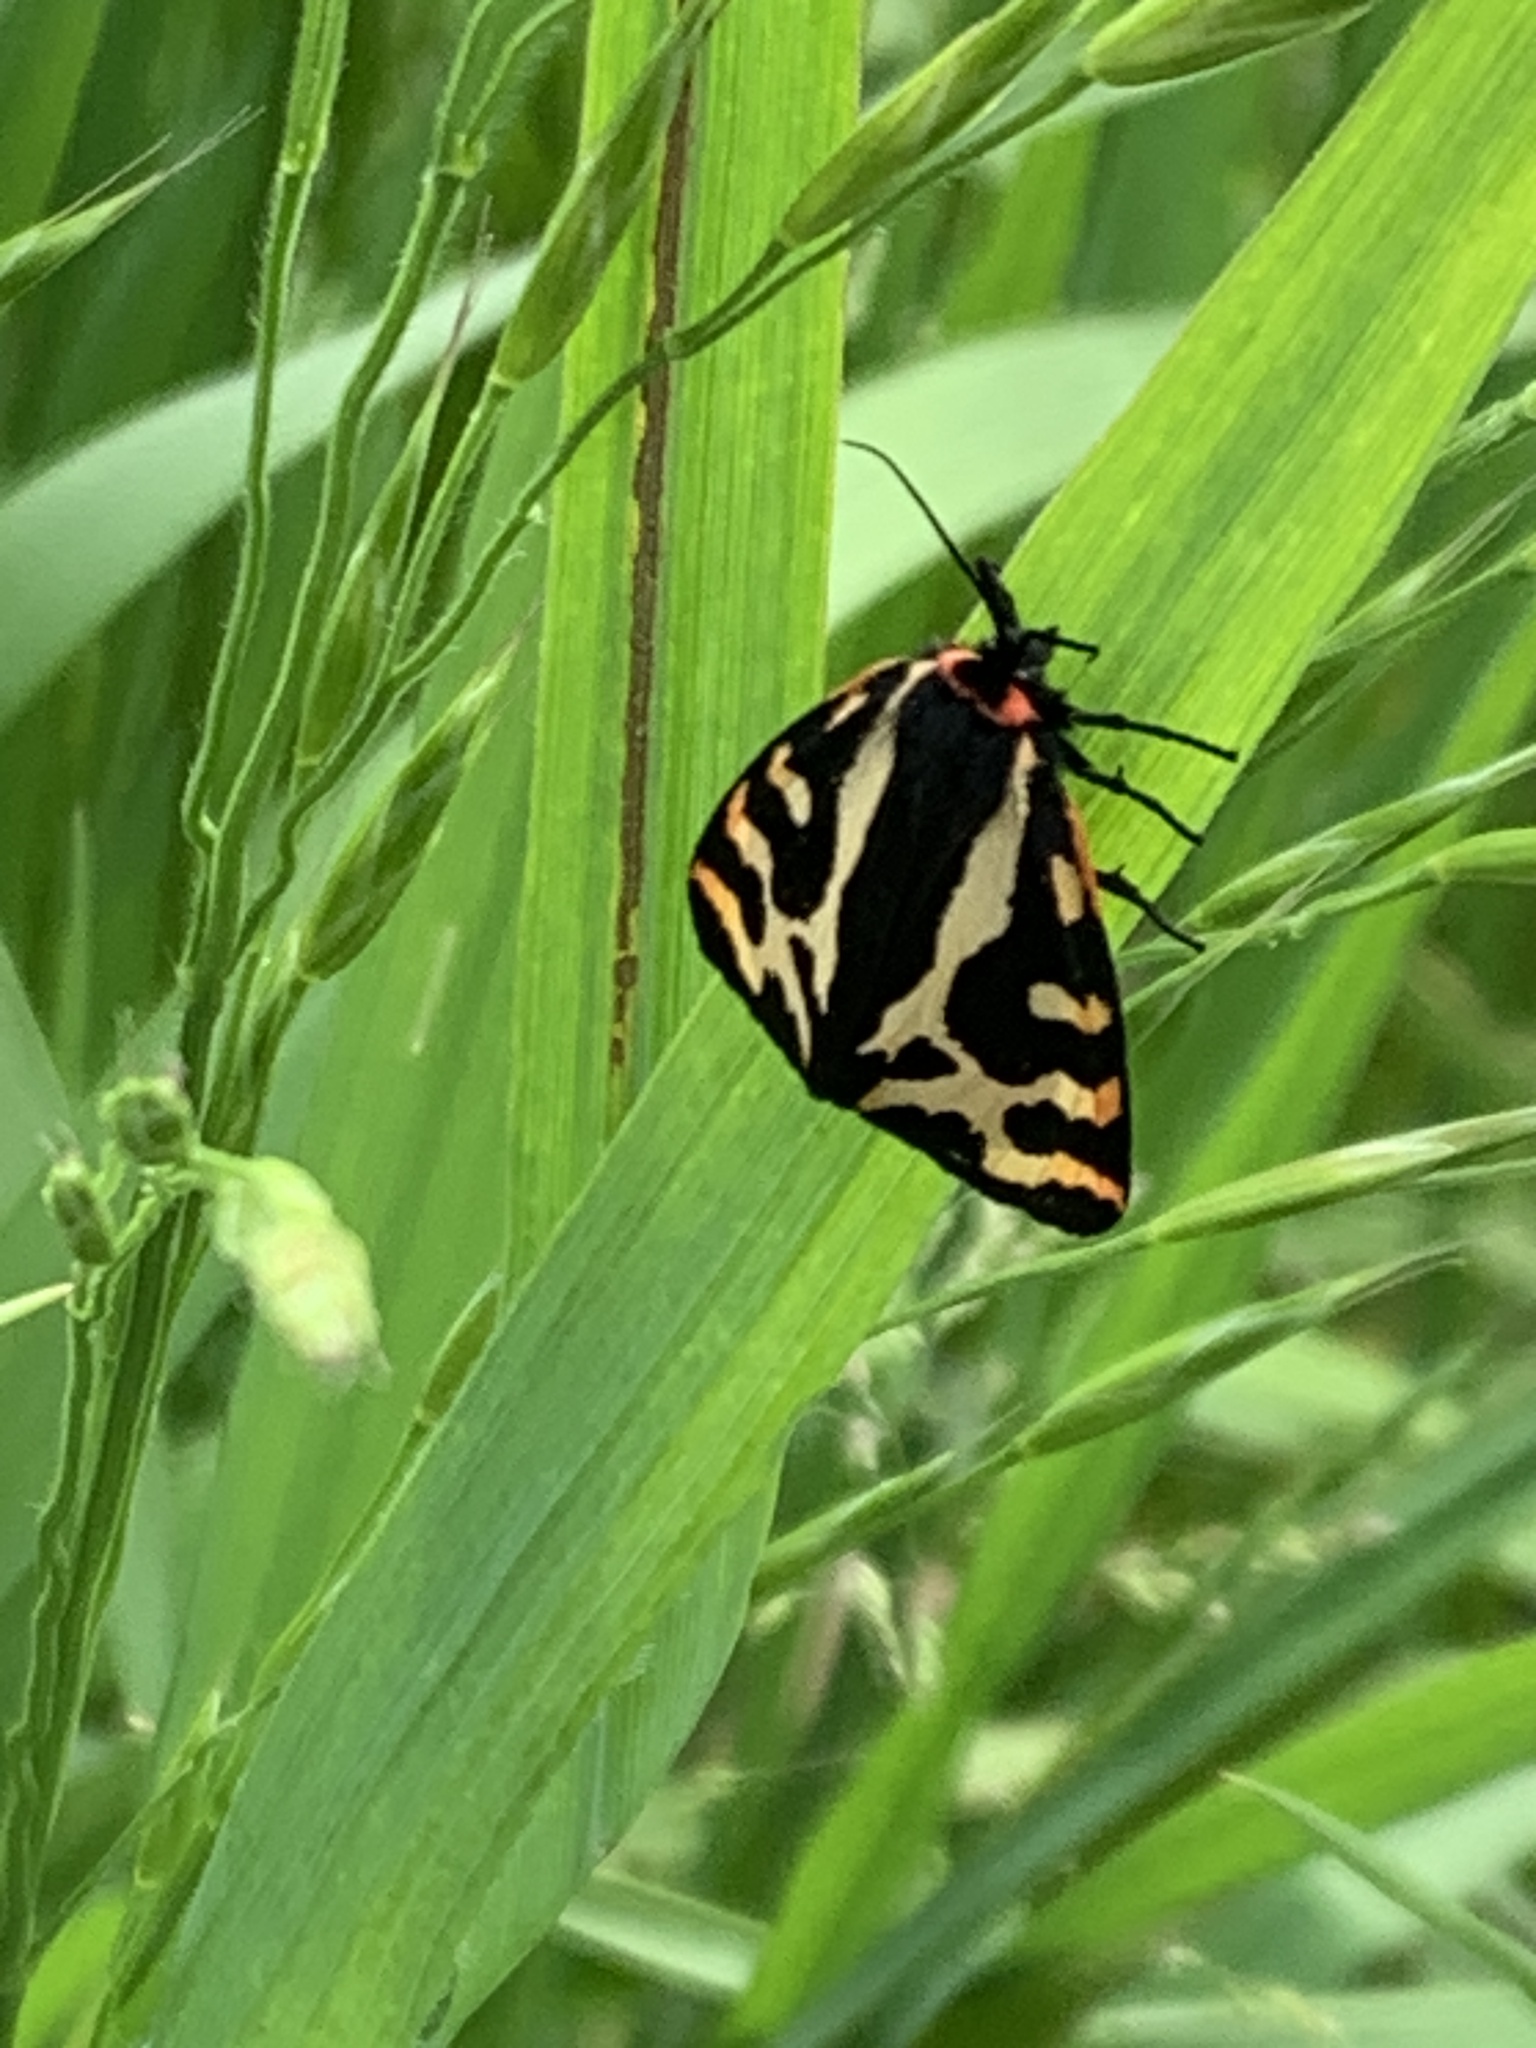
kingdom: Animalia
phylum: Arthropoda
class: Insecta
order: Lepidoptera
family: Erebidae
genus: Parasemia
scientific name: Parasemia plantaginis
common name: Wood tiger
